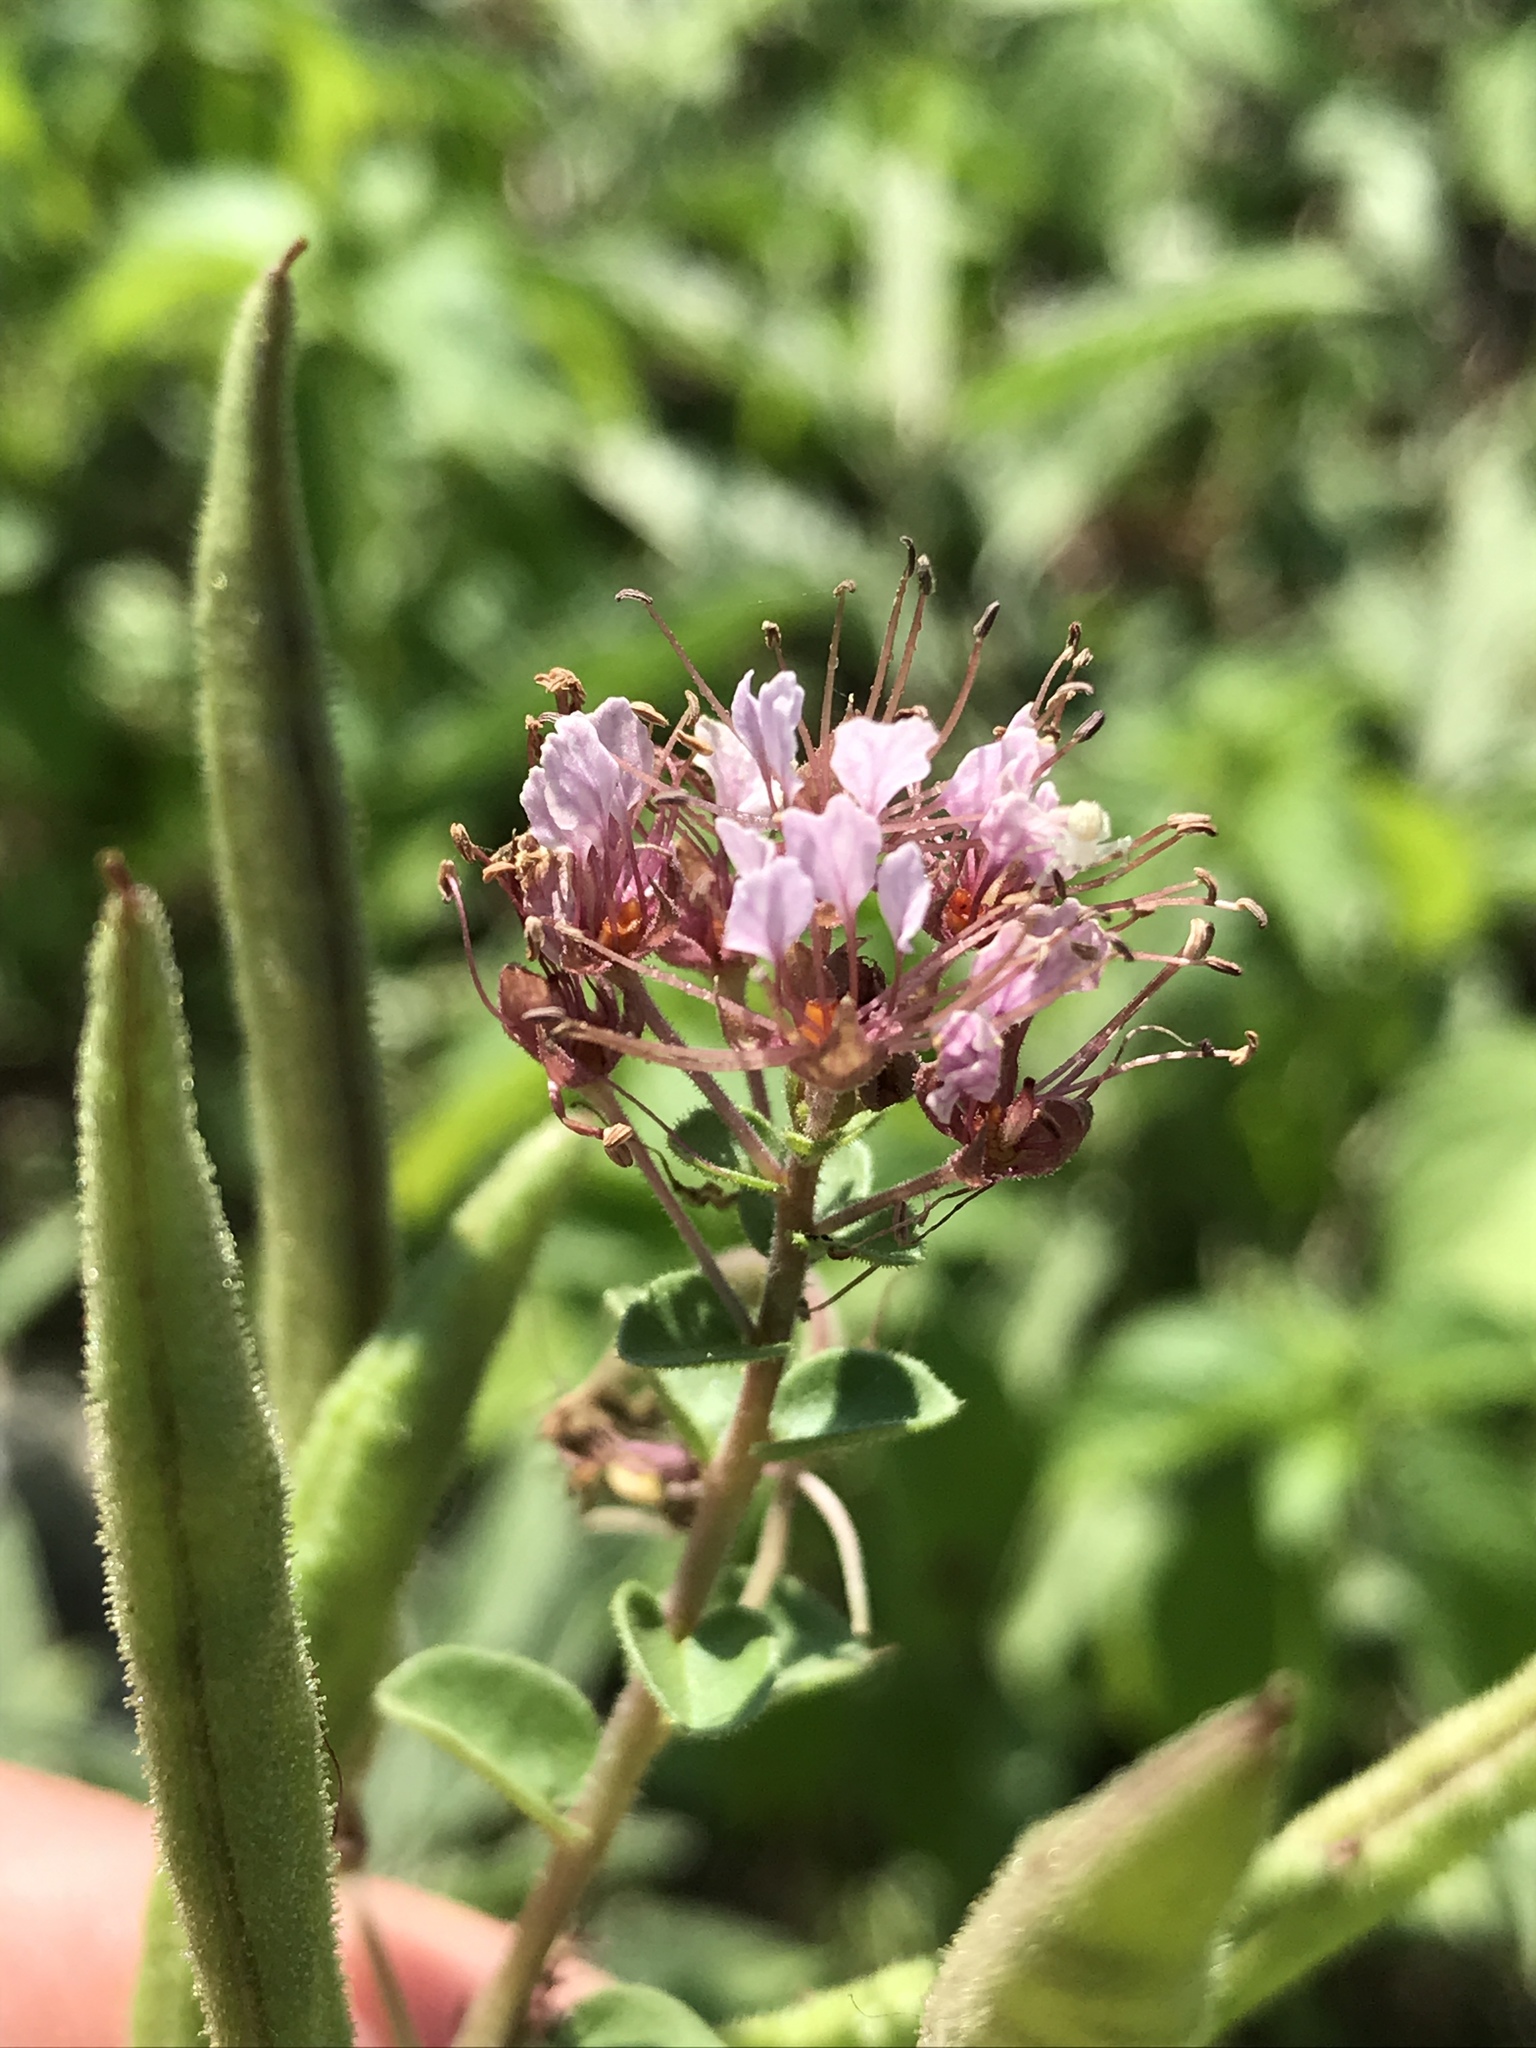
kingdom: Plantae
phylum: Tracheophyta
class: Magnoliopsida
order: Brassicales
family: Cleomaceae
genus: Polanisia
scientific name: Polanisia dodecandra
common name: Clammyweed
